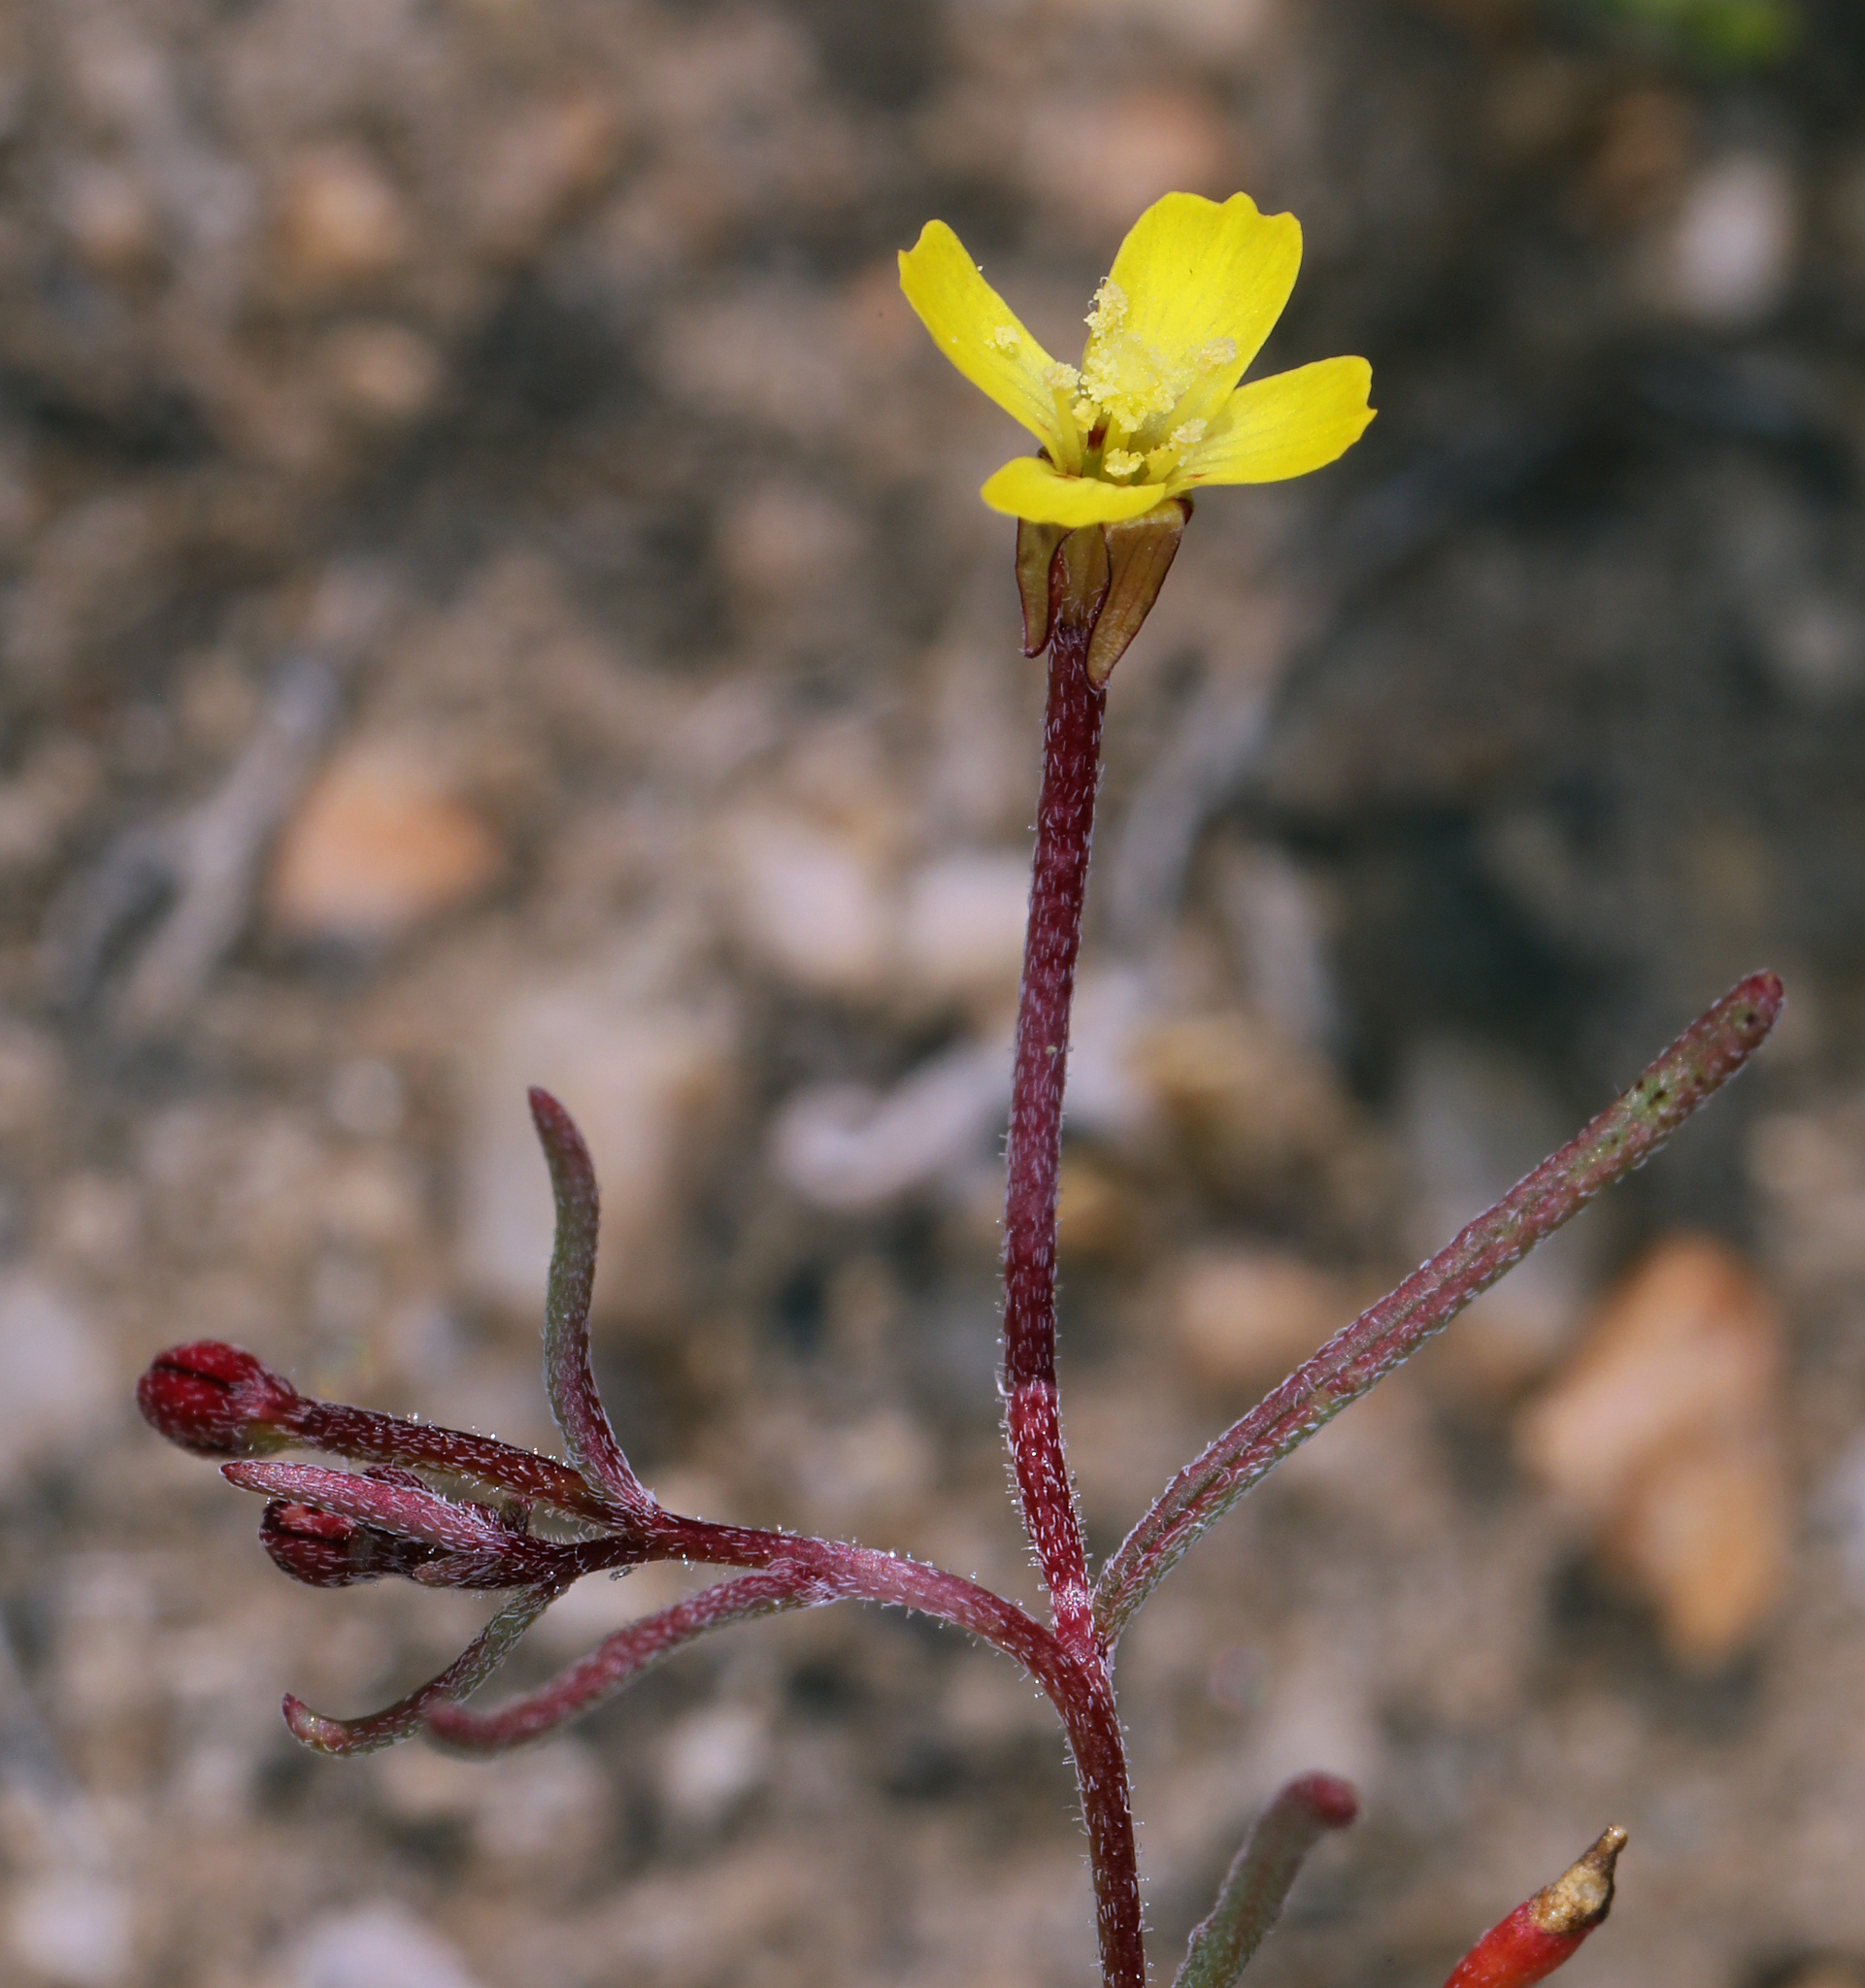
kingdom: Plantae
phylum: Tracheophyta
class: Magnoliopsida
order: Myrtales
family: Onagraceae
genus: Camissonia
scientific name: Camissonia pusilla
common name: Obscure camissonia
